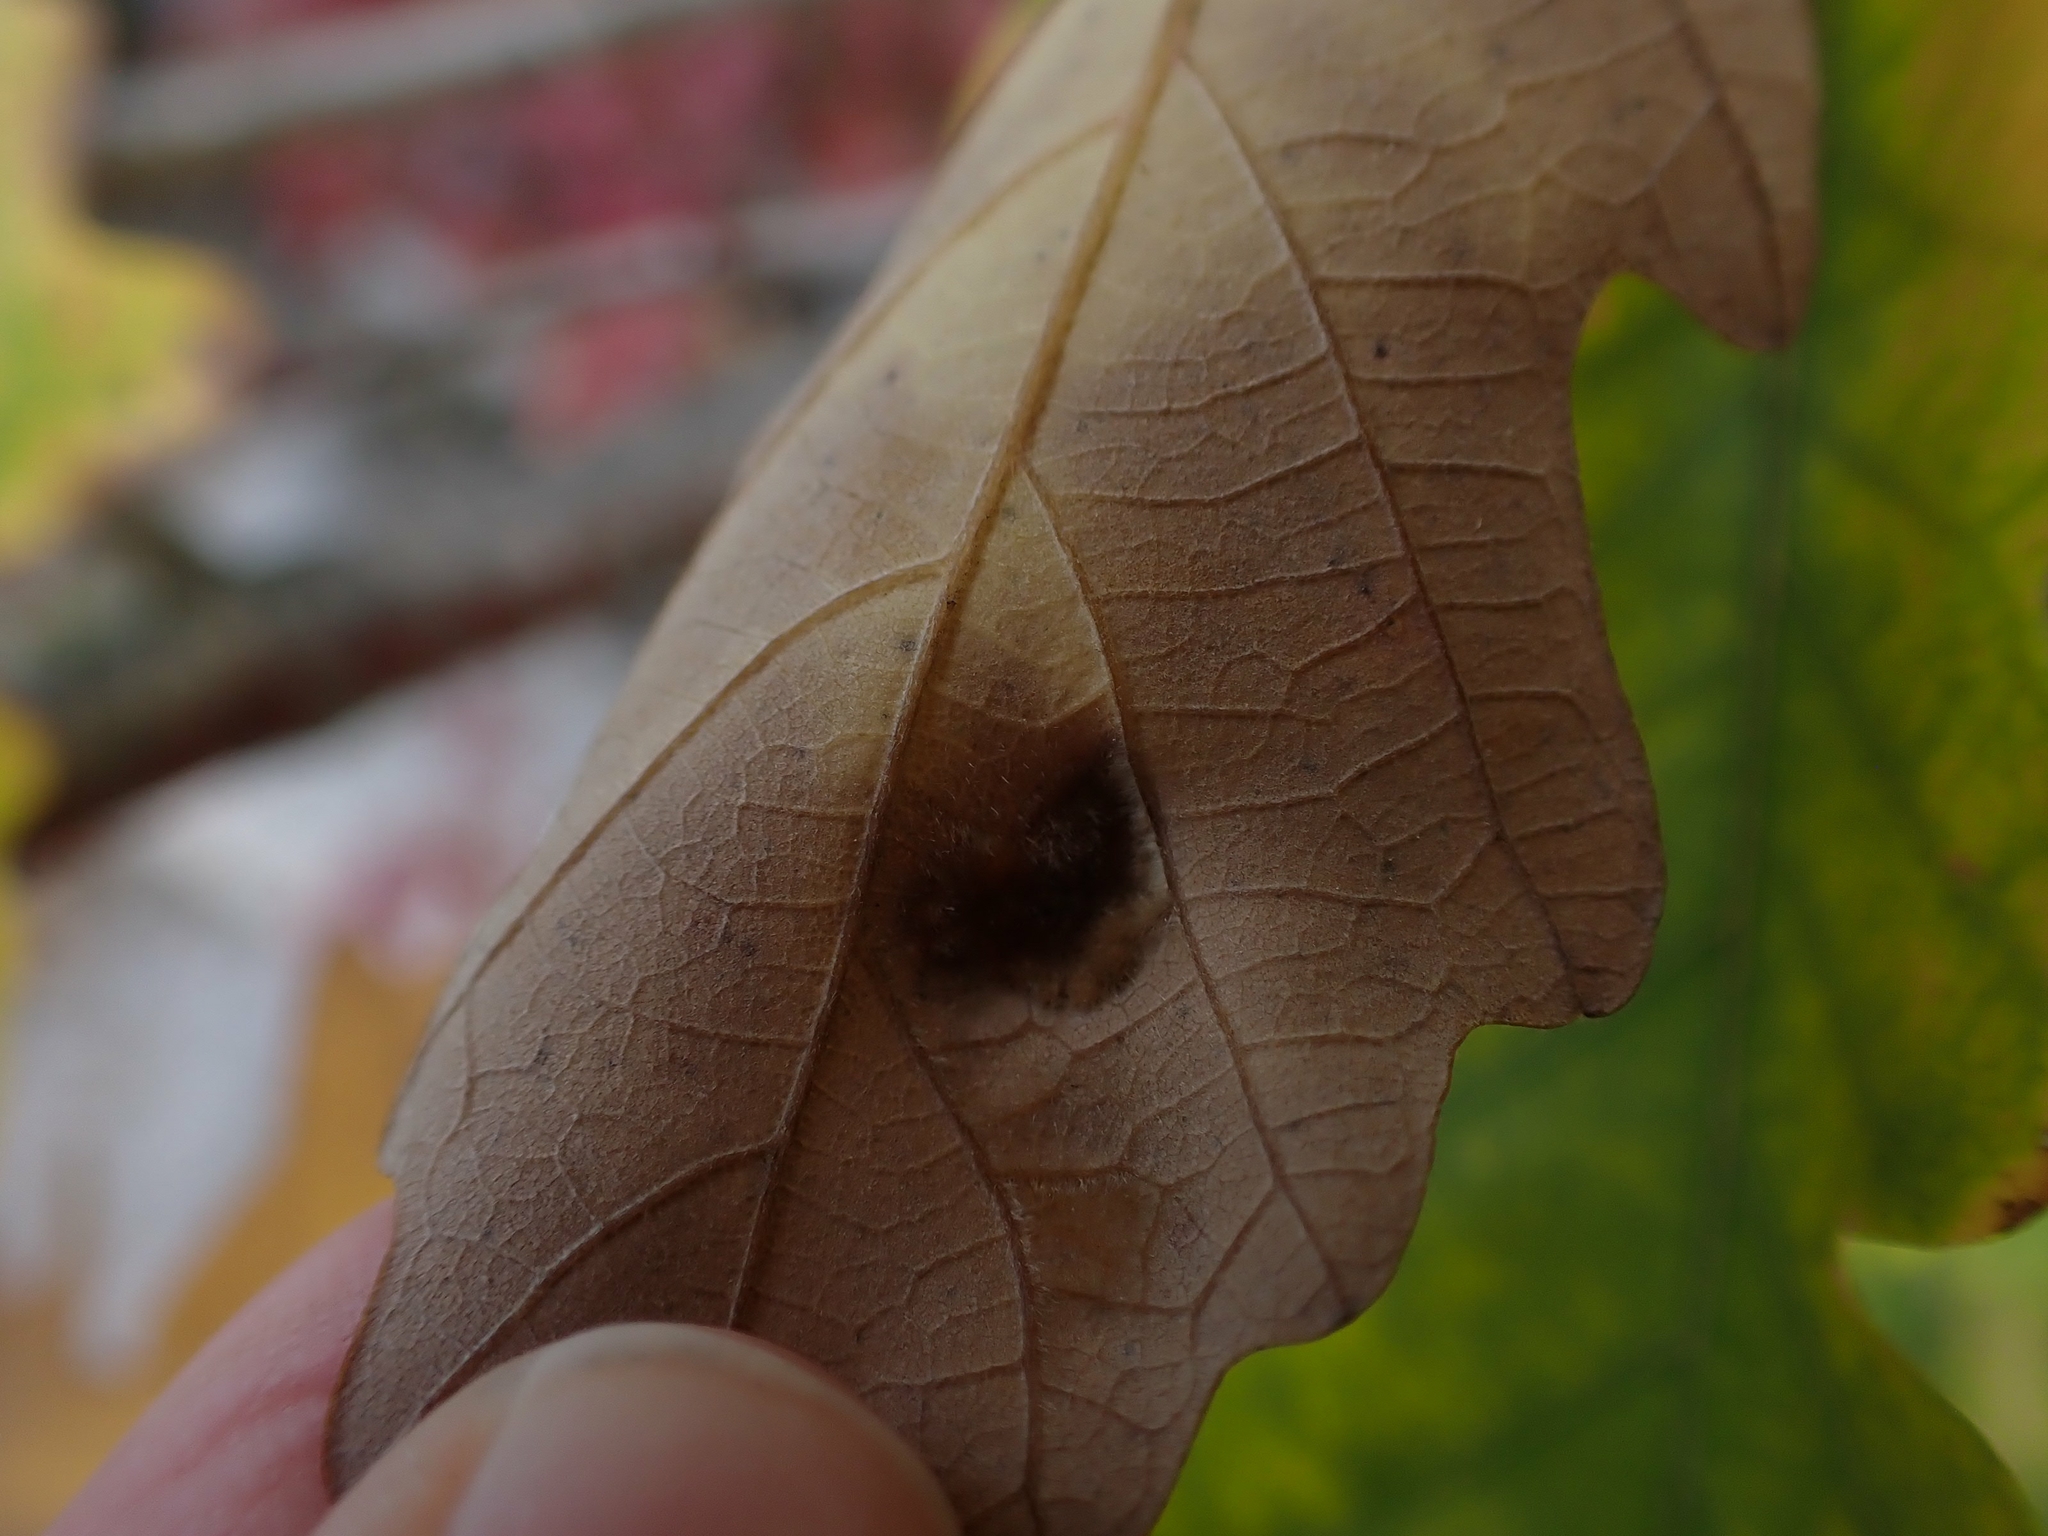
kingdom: Animalia
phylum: Arthropoda
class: Arachnida
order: Trombidiformes
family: Eriophyidae
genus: Aceria
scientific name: Aceria quercina
